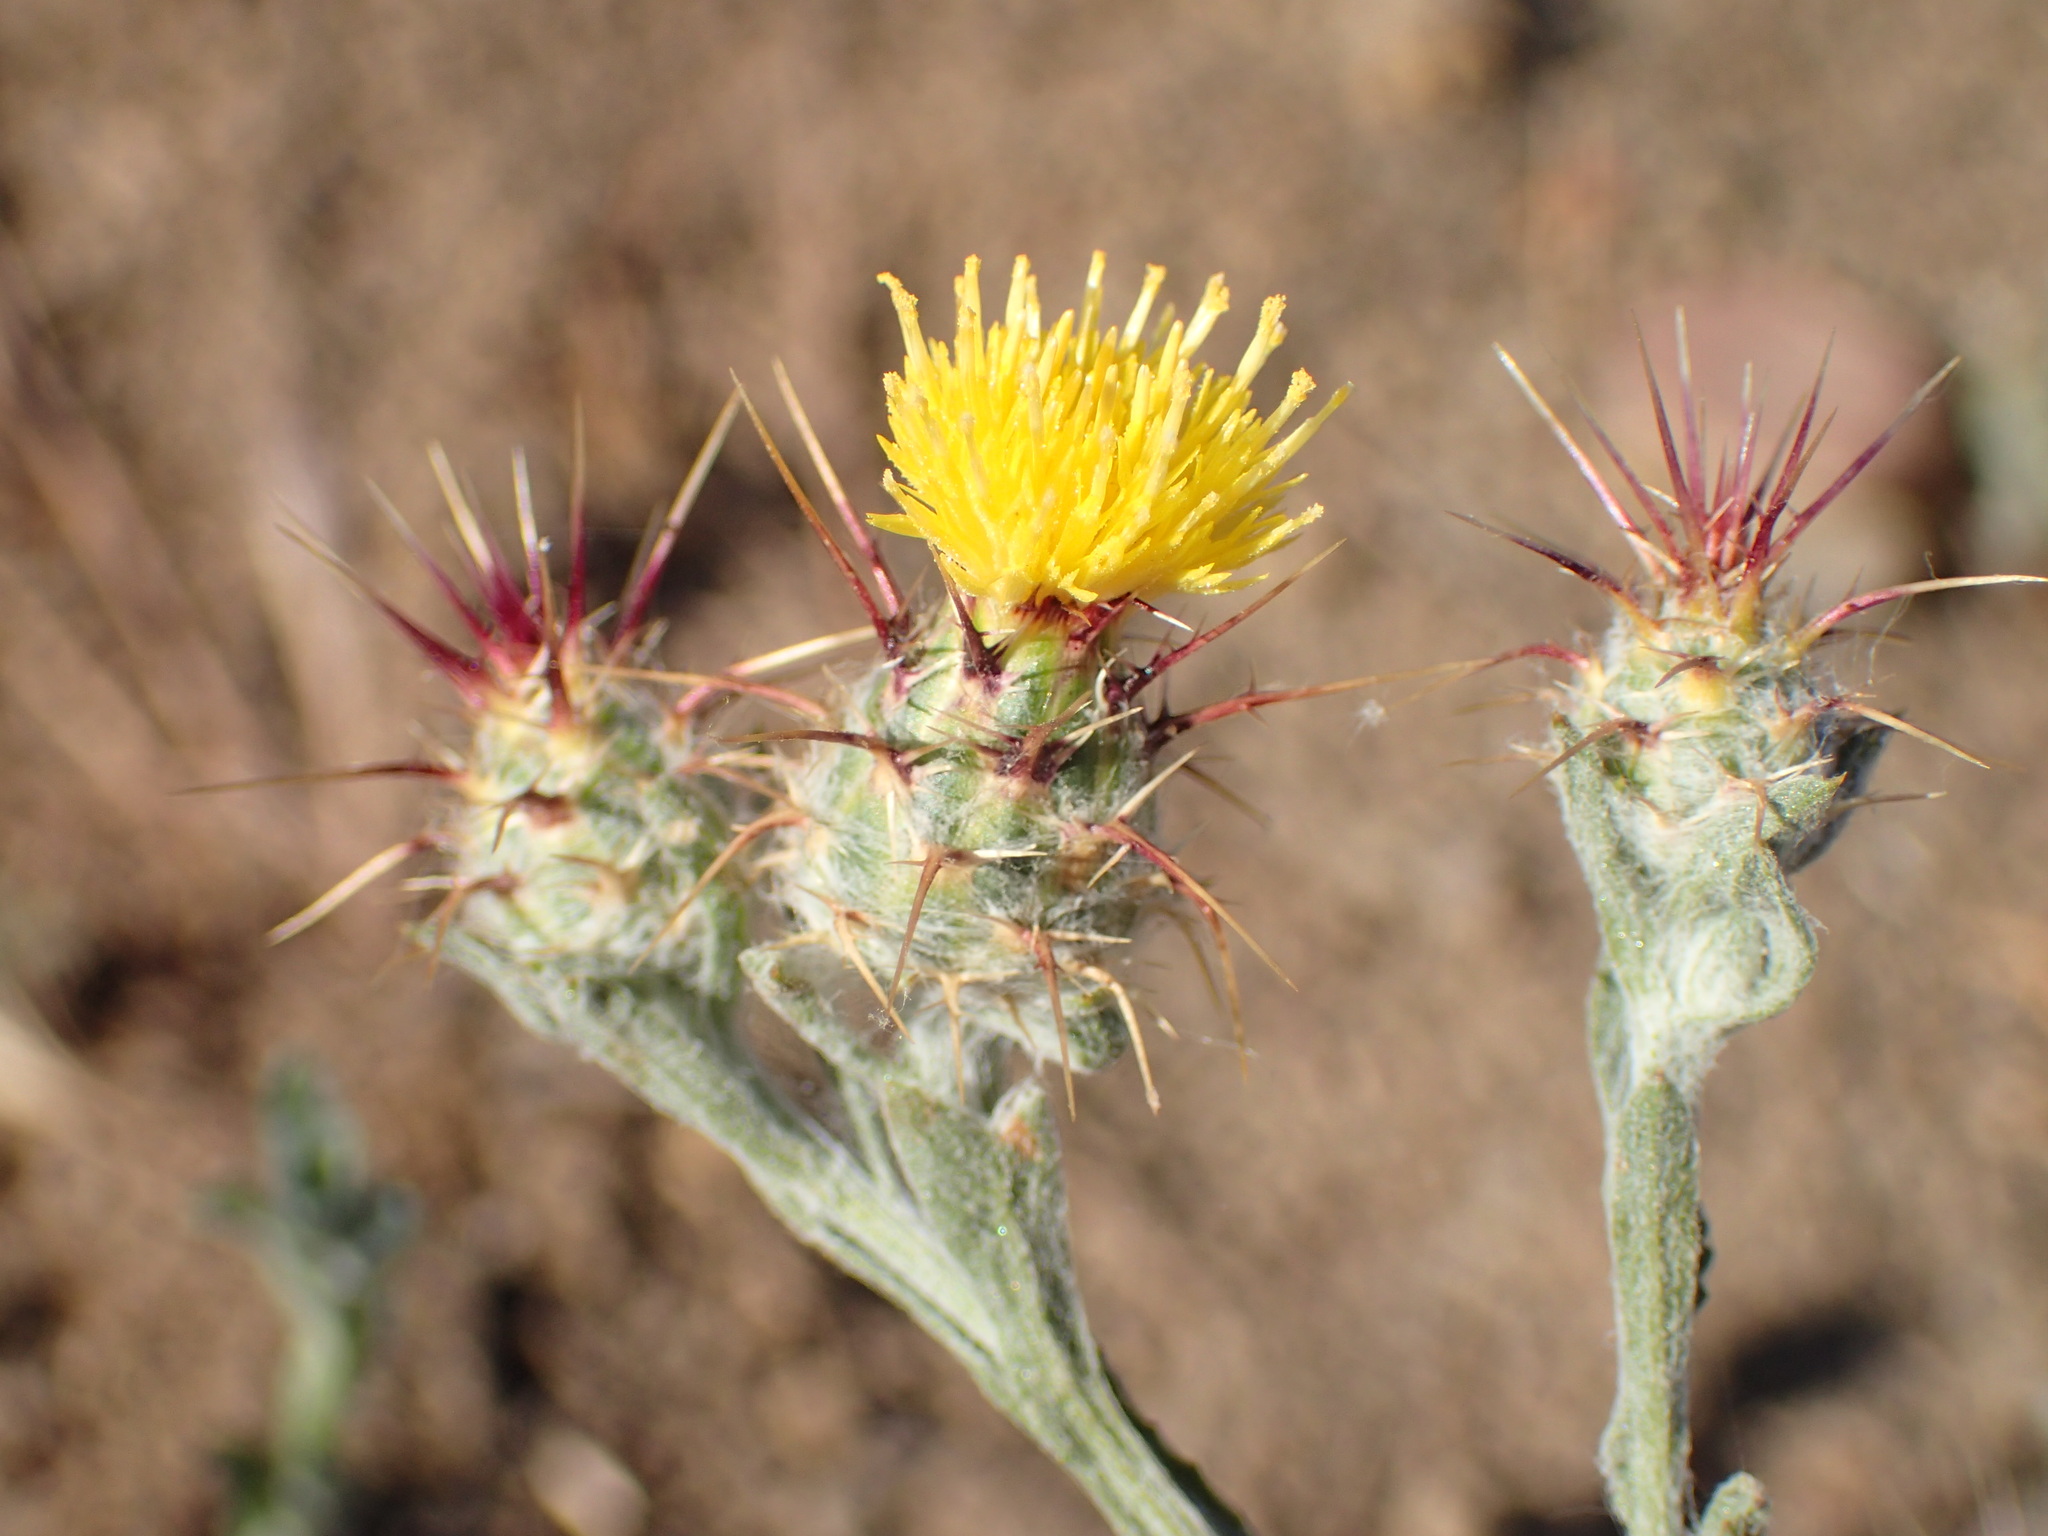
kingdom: Plantae
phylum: Tracheophyta
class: Magnoliopsida
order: Asterales
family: Asteraceae
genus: Centaurea
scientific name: Centaurea melitensis
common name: Maltese star-thistle
